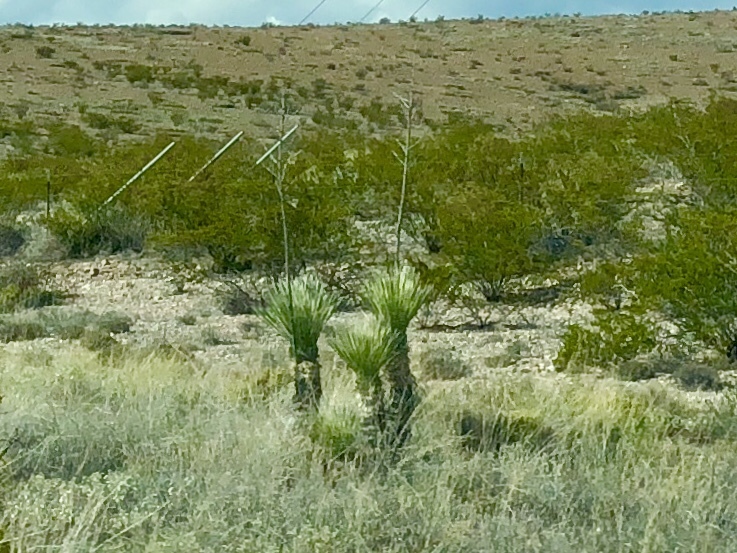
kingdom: Plantae
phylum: Tracheophyta
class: Liliopsida
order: Asparagales
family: Asparagaceae
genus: Yucca
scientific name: Yucca elata
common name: Palmella
